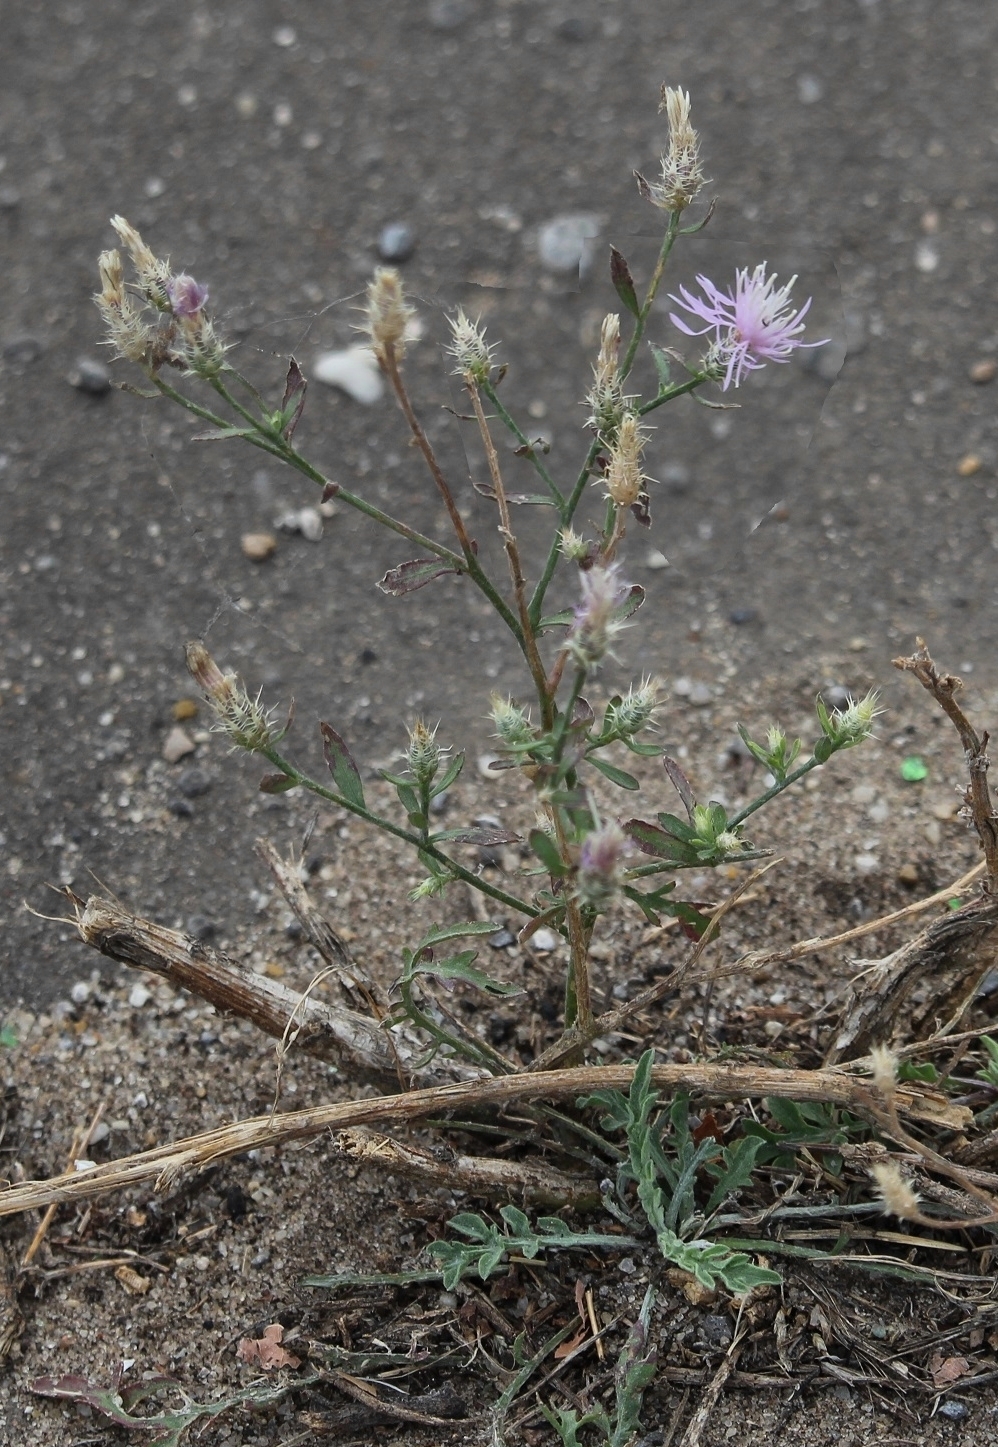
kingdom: Plantae
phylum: Tracheophyta
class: Magnoliopsida
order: Asterales
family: Asteraceae
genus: Centaurea
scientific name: Centaurea diffusa
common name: Diffuse knapweed
